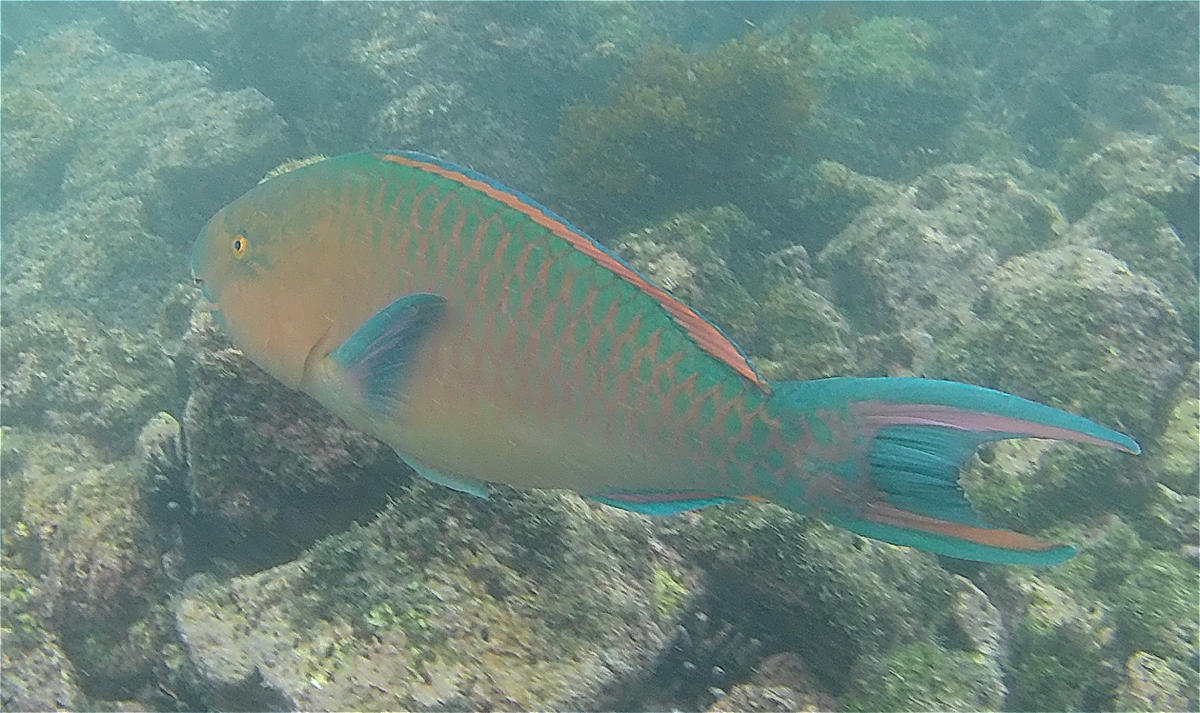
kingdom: Animalia
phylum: Chordata
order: Perciformes
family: Scaridae
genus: Scarus
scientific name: Scarus ghobban
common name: Blue-barred parrotfish
